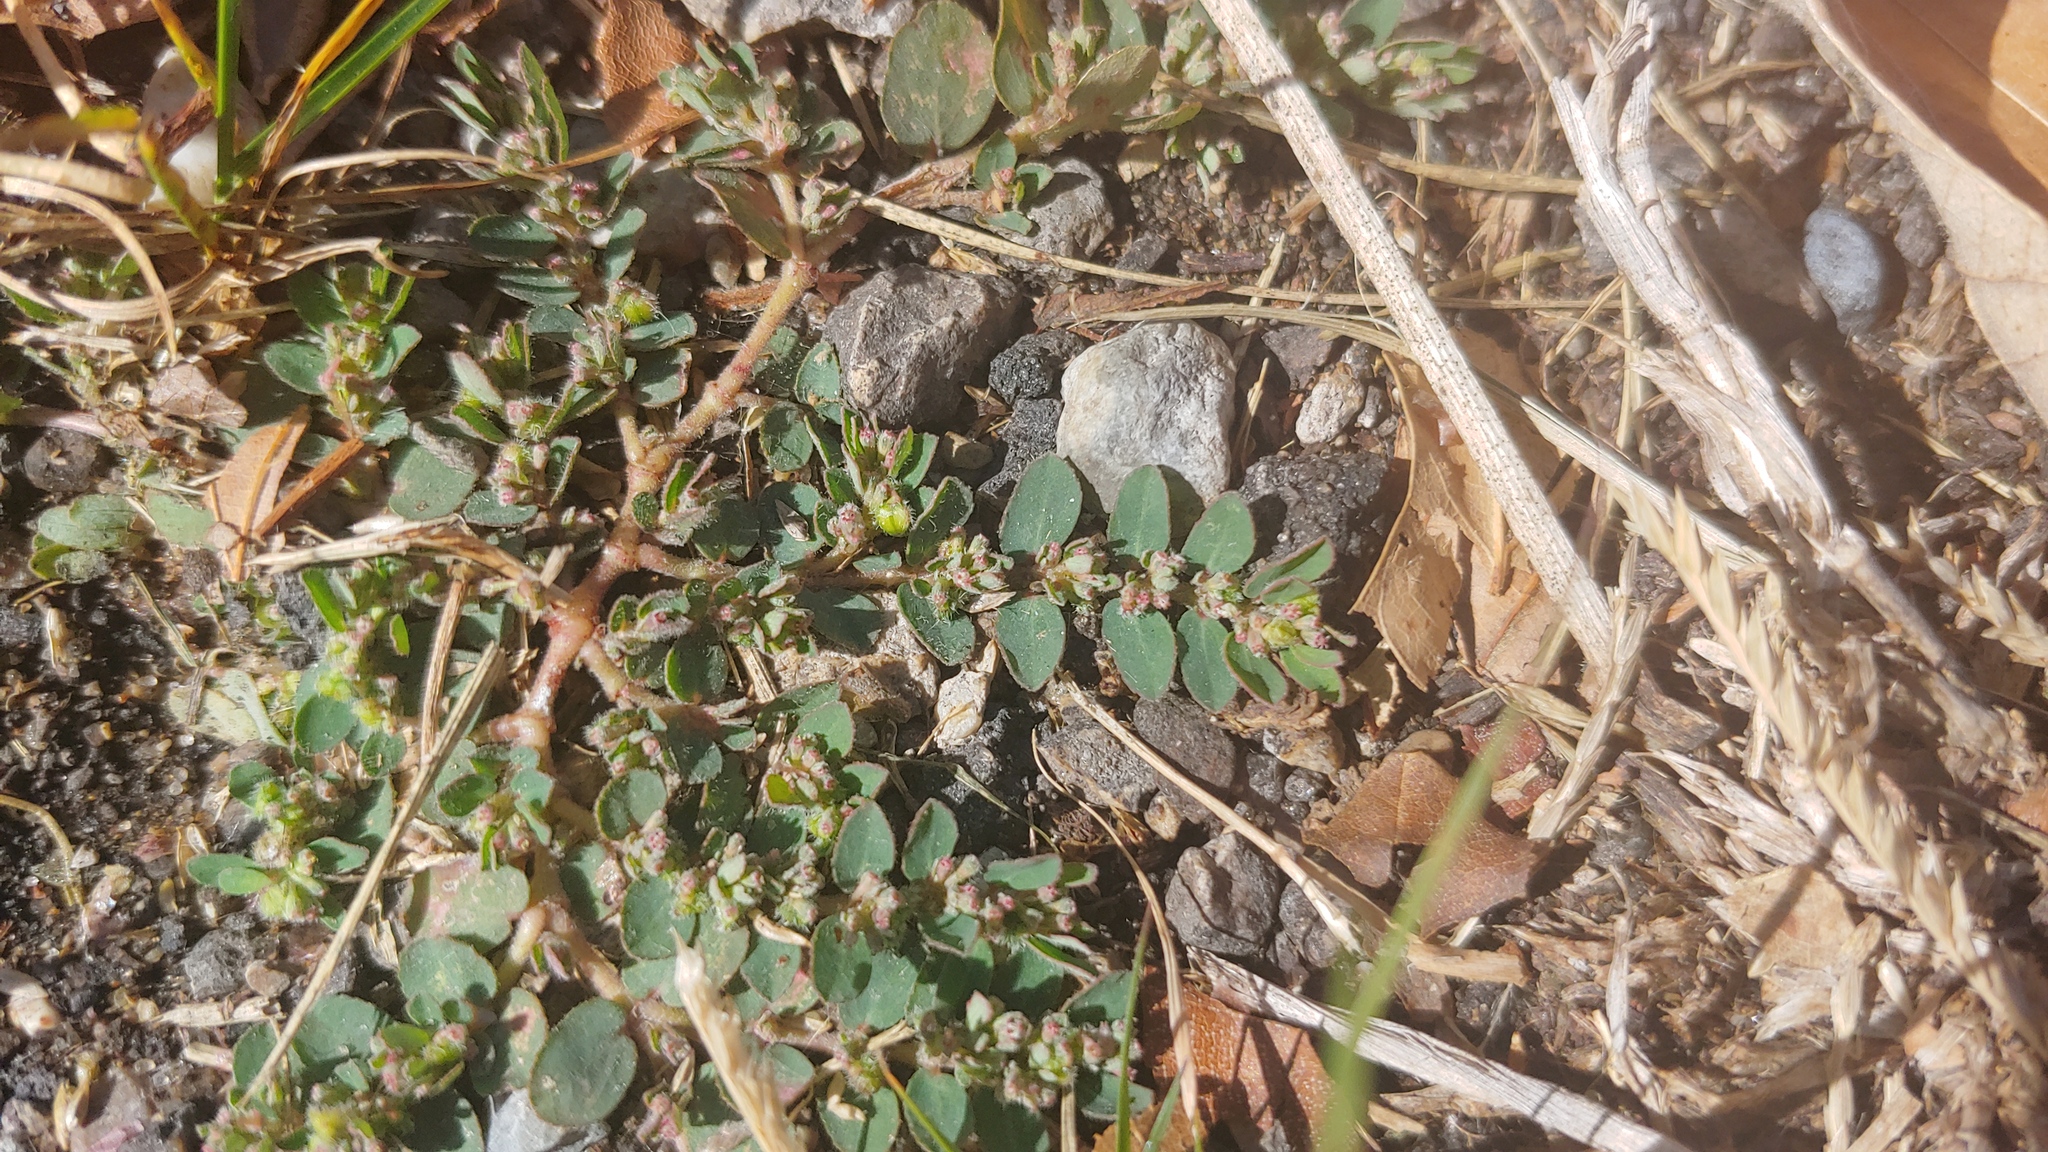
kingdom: Plantae
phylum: Tracheophyta
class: Magnoliopsida
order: Malpighiales
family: Euphorbiaceae
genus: Euphorbia
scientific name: Euphorbia prostrata
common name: Prostrate sandmat
